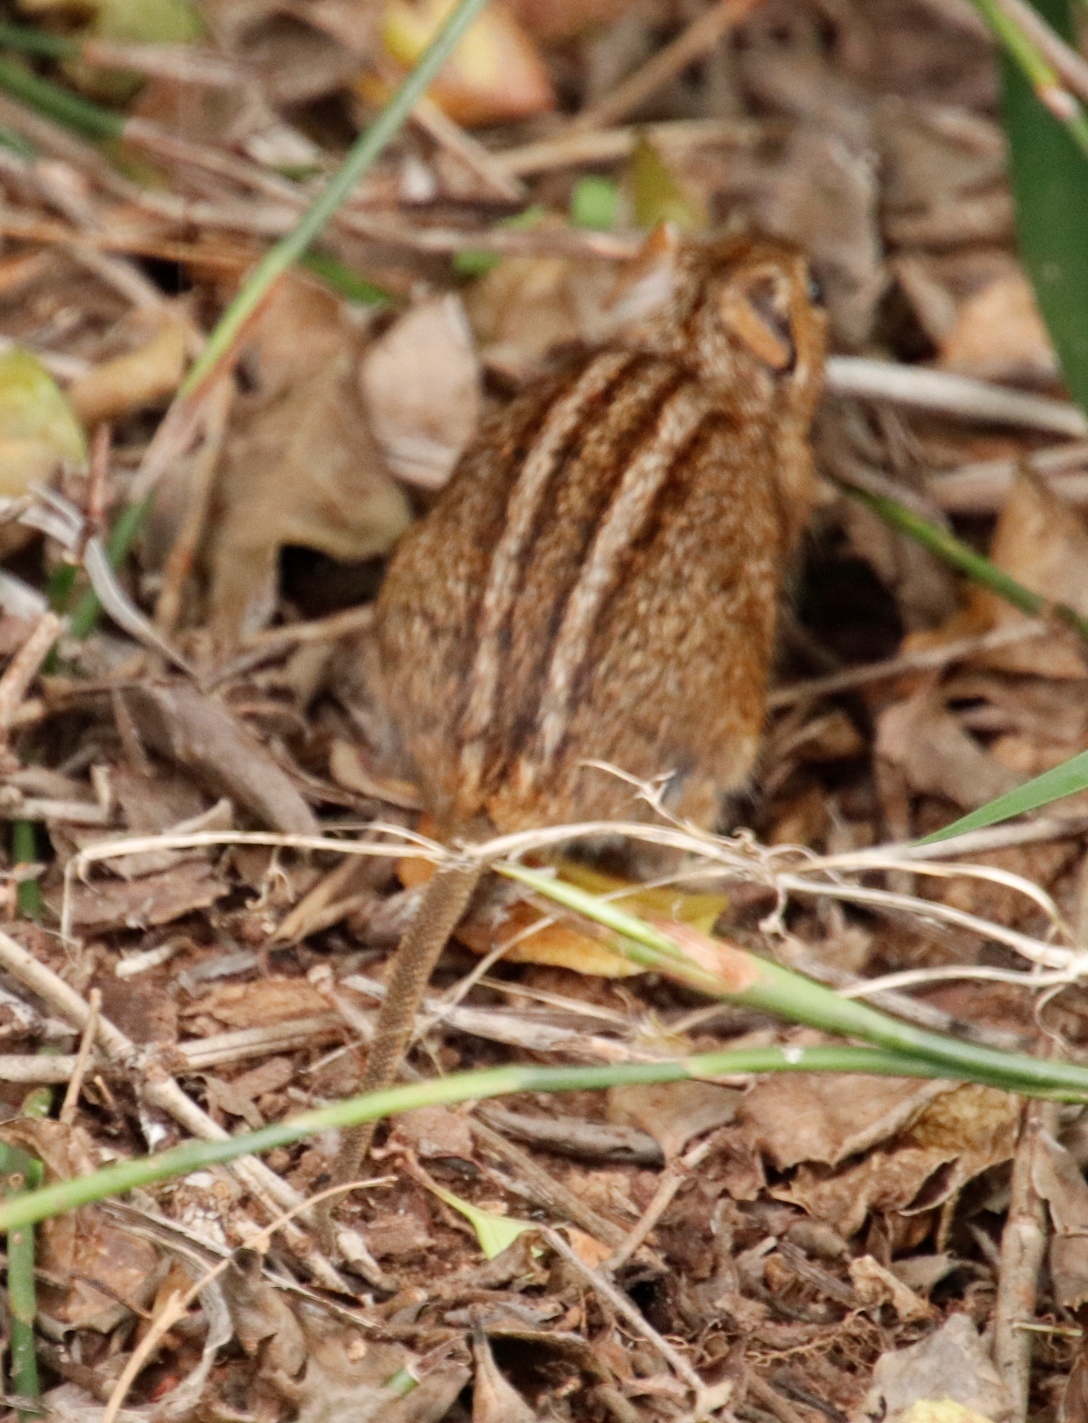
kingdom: Animalia
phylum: Chordata
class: Mammalia
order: Rodentia
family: Muridae
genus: Rhabdomys
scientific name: Rhabdomys pumilio
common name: Xeric four-striped grass rat
